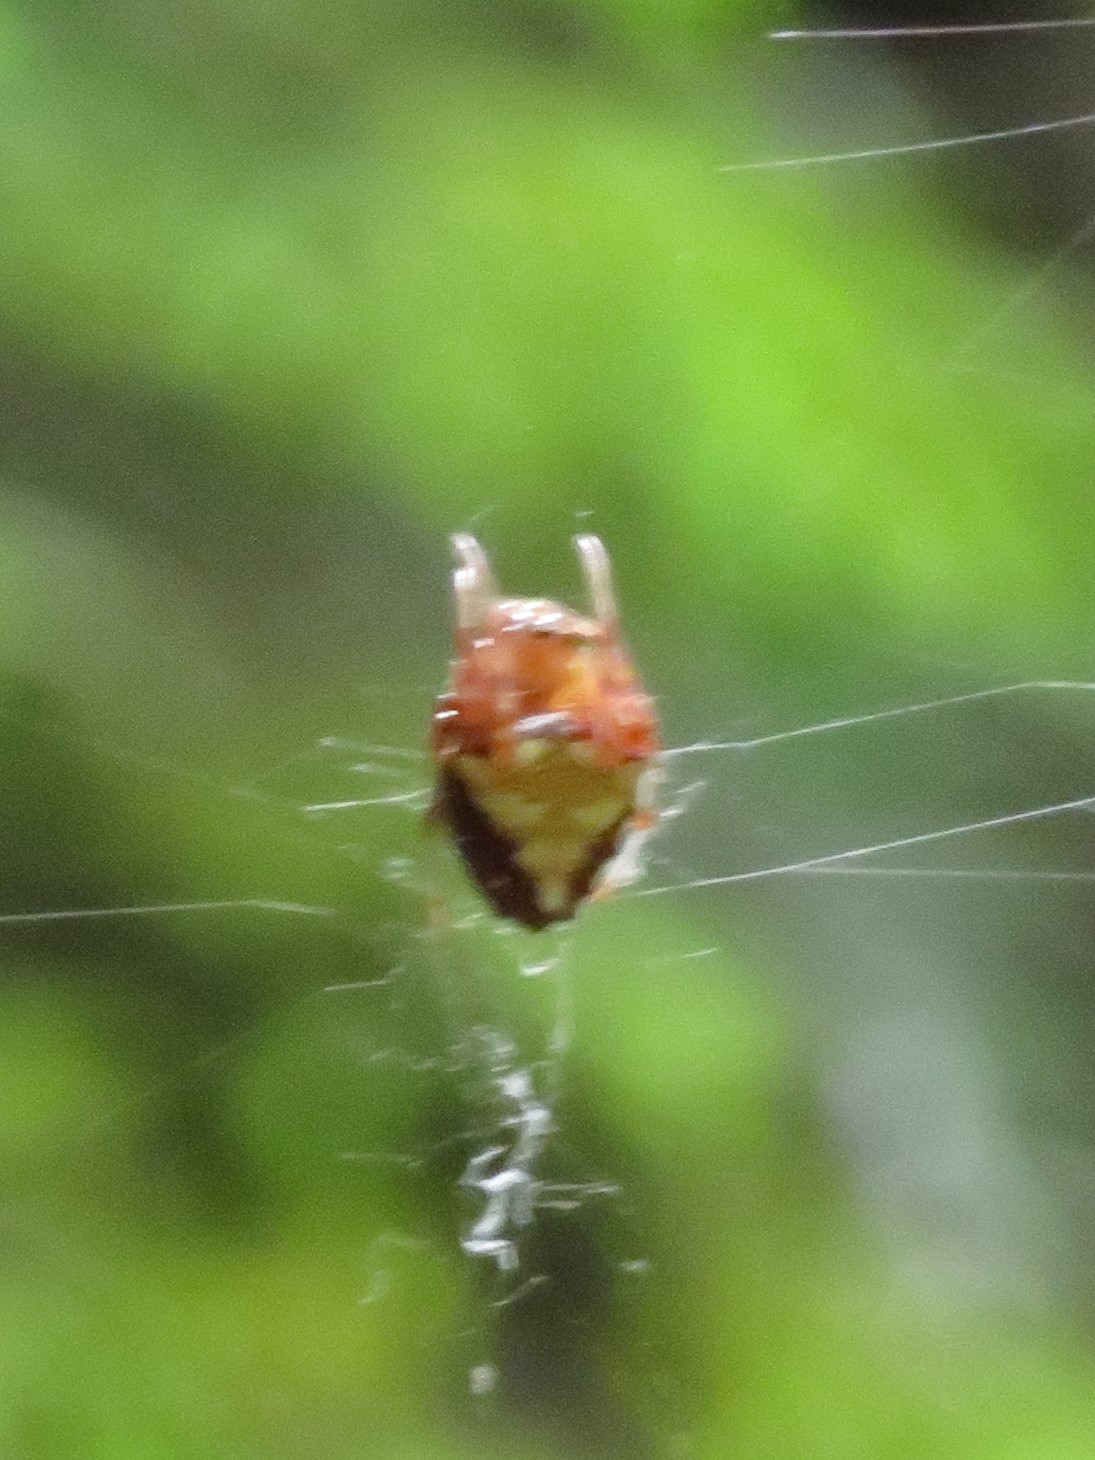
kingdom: Animalia
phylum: Arthropoda
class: Arachnida
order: Araneae
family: Araneidae
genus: Verrucosa
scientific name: Verrucosa arenata
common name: Orb weavers
